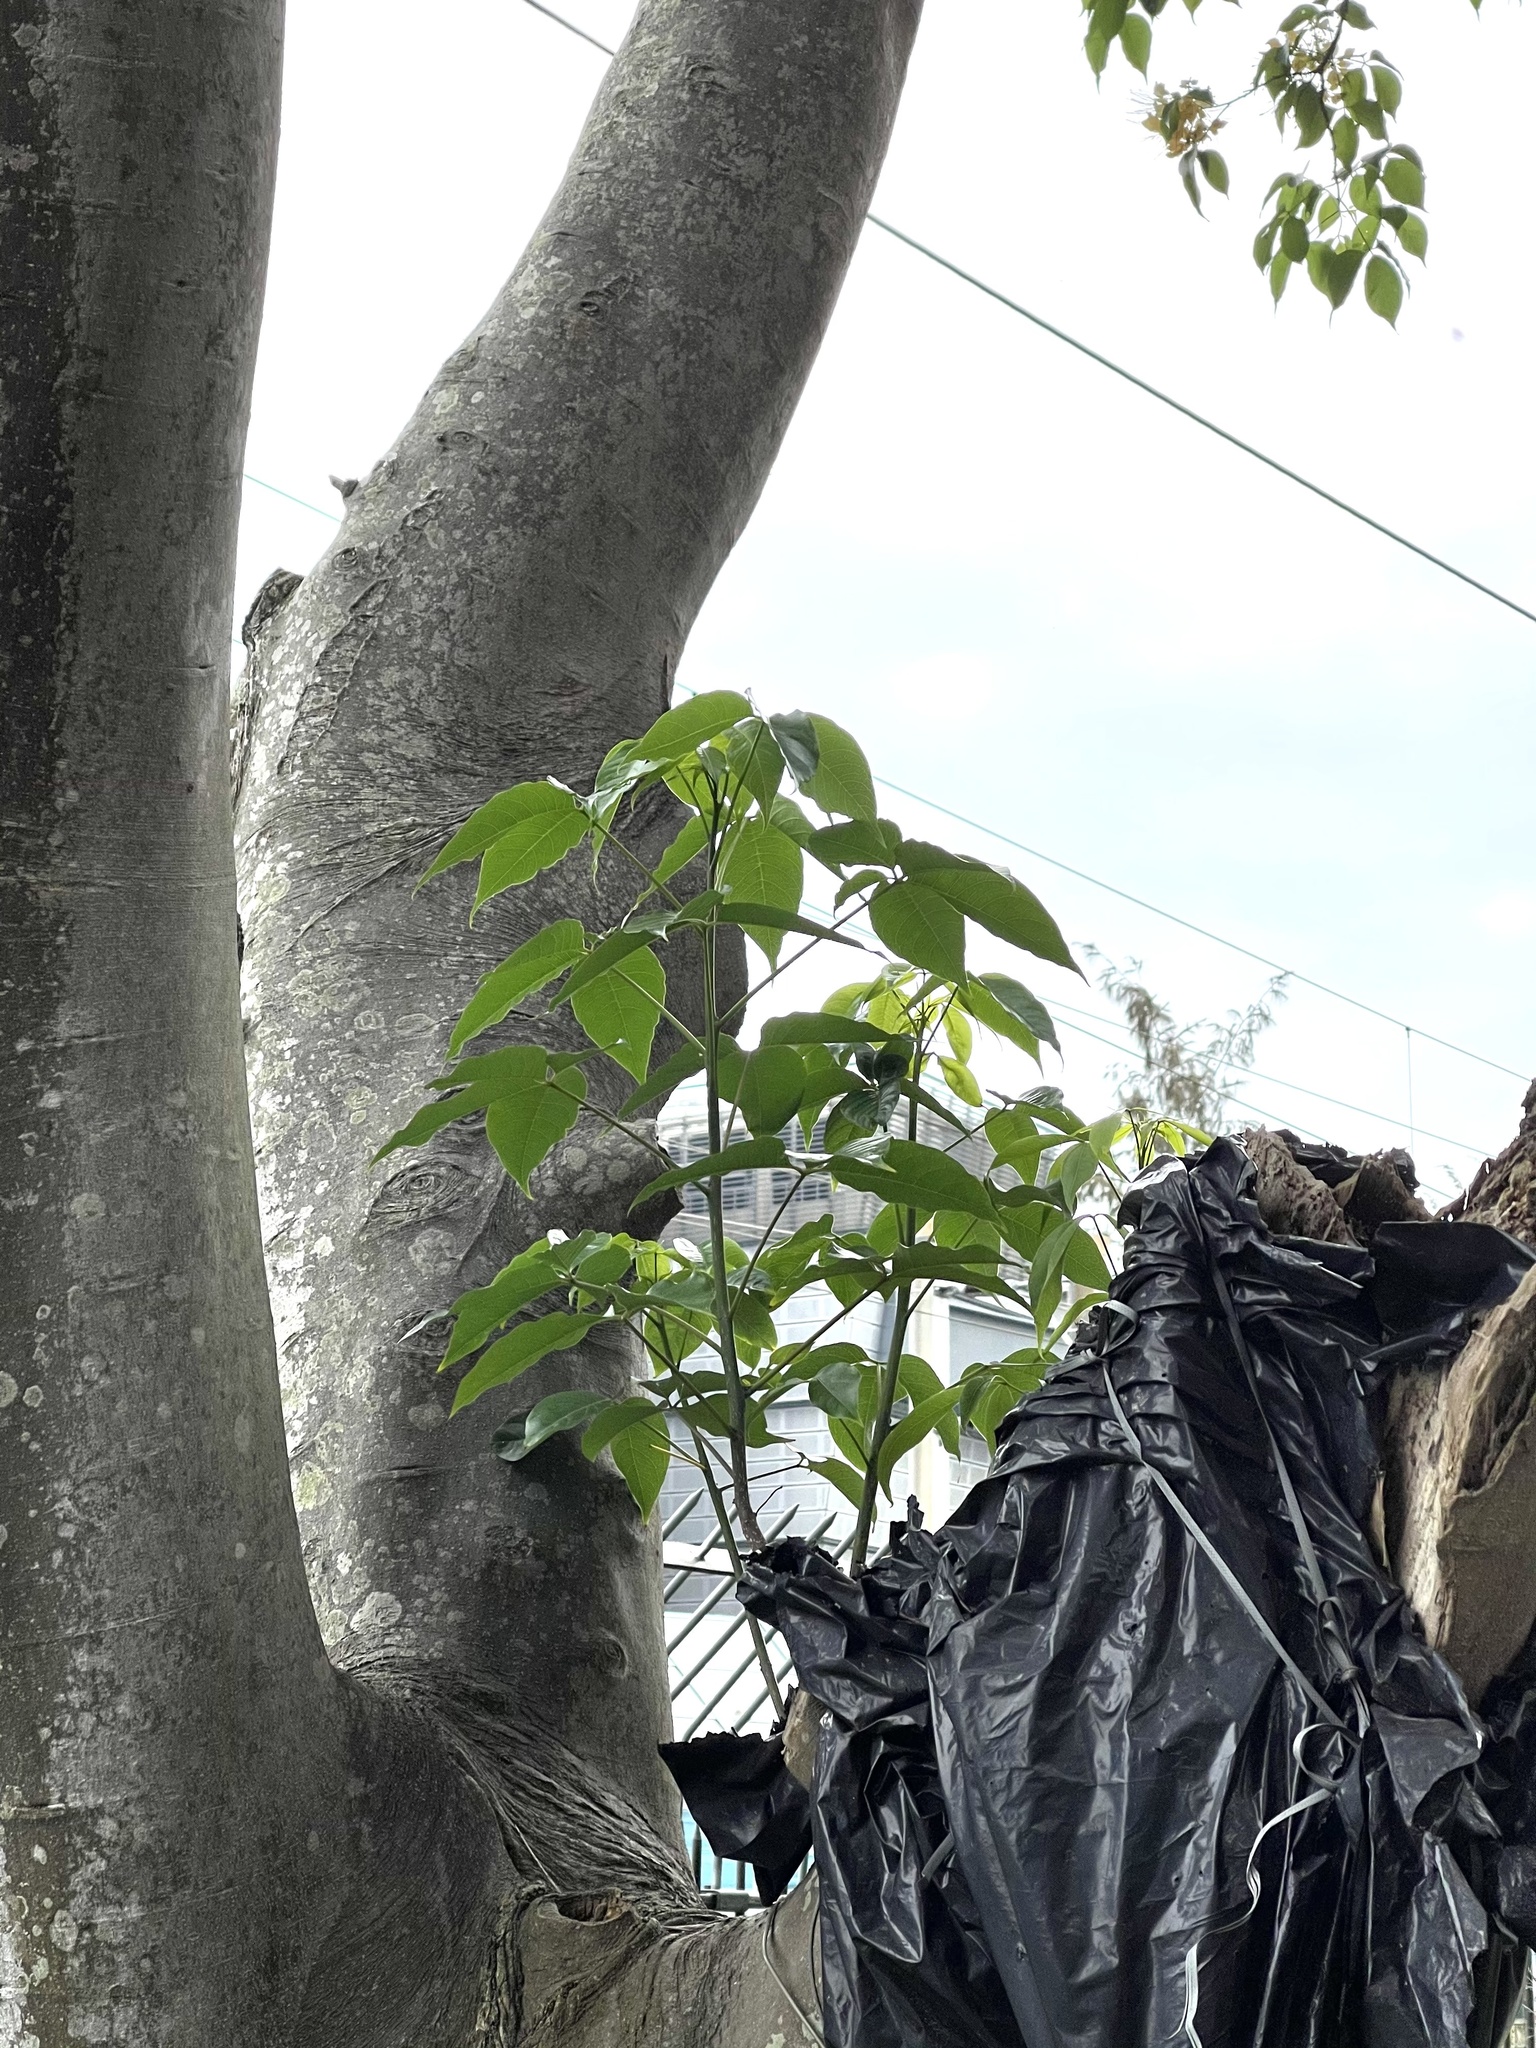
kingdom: Plantae
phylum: Tracheophyta
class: Magnoliopsida
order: Brassicales
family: Capparaceae
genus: Crateva
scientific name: Crateva unilocularis
